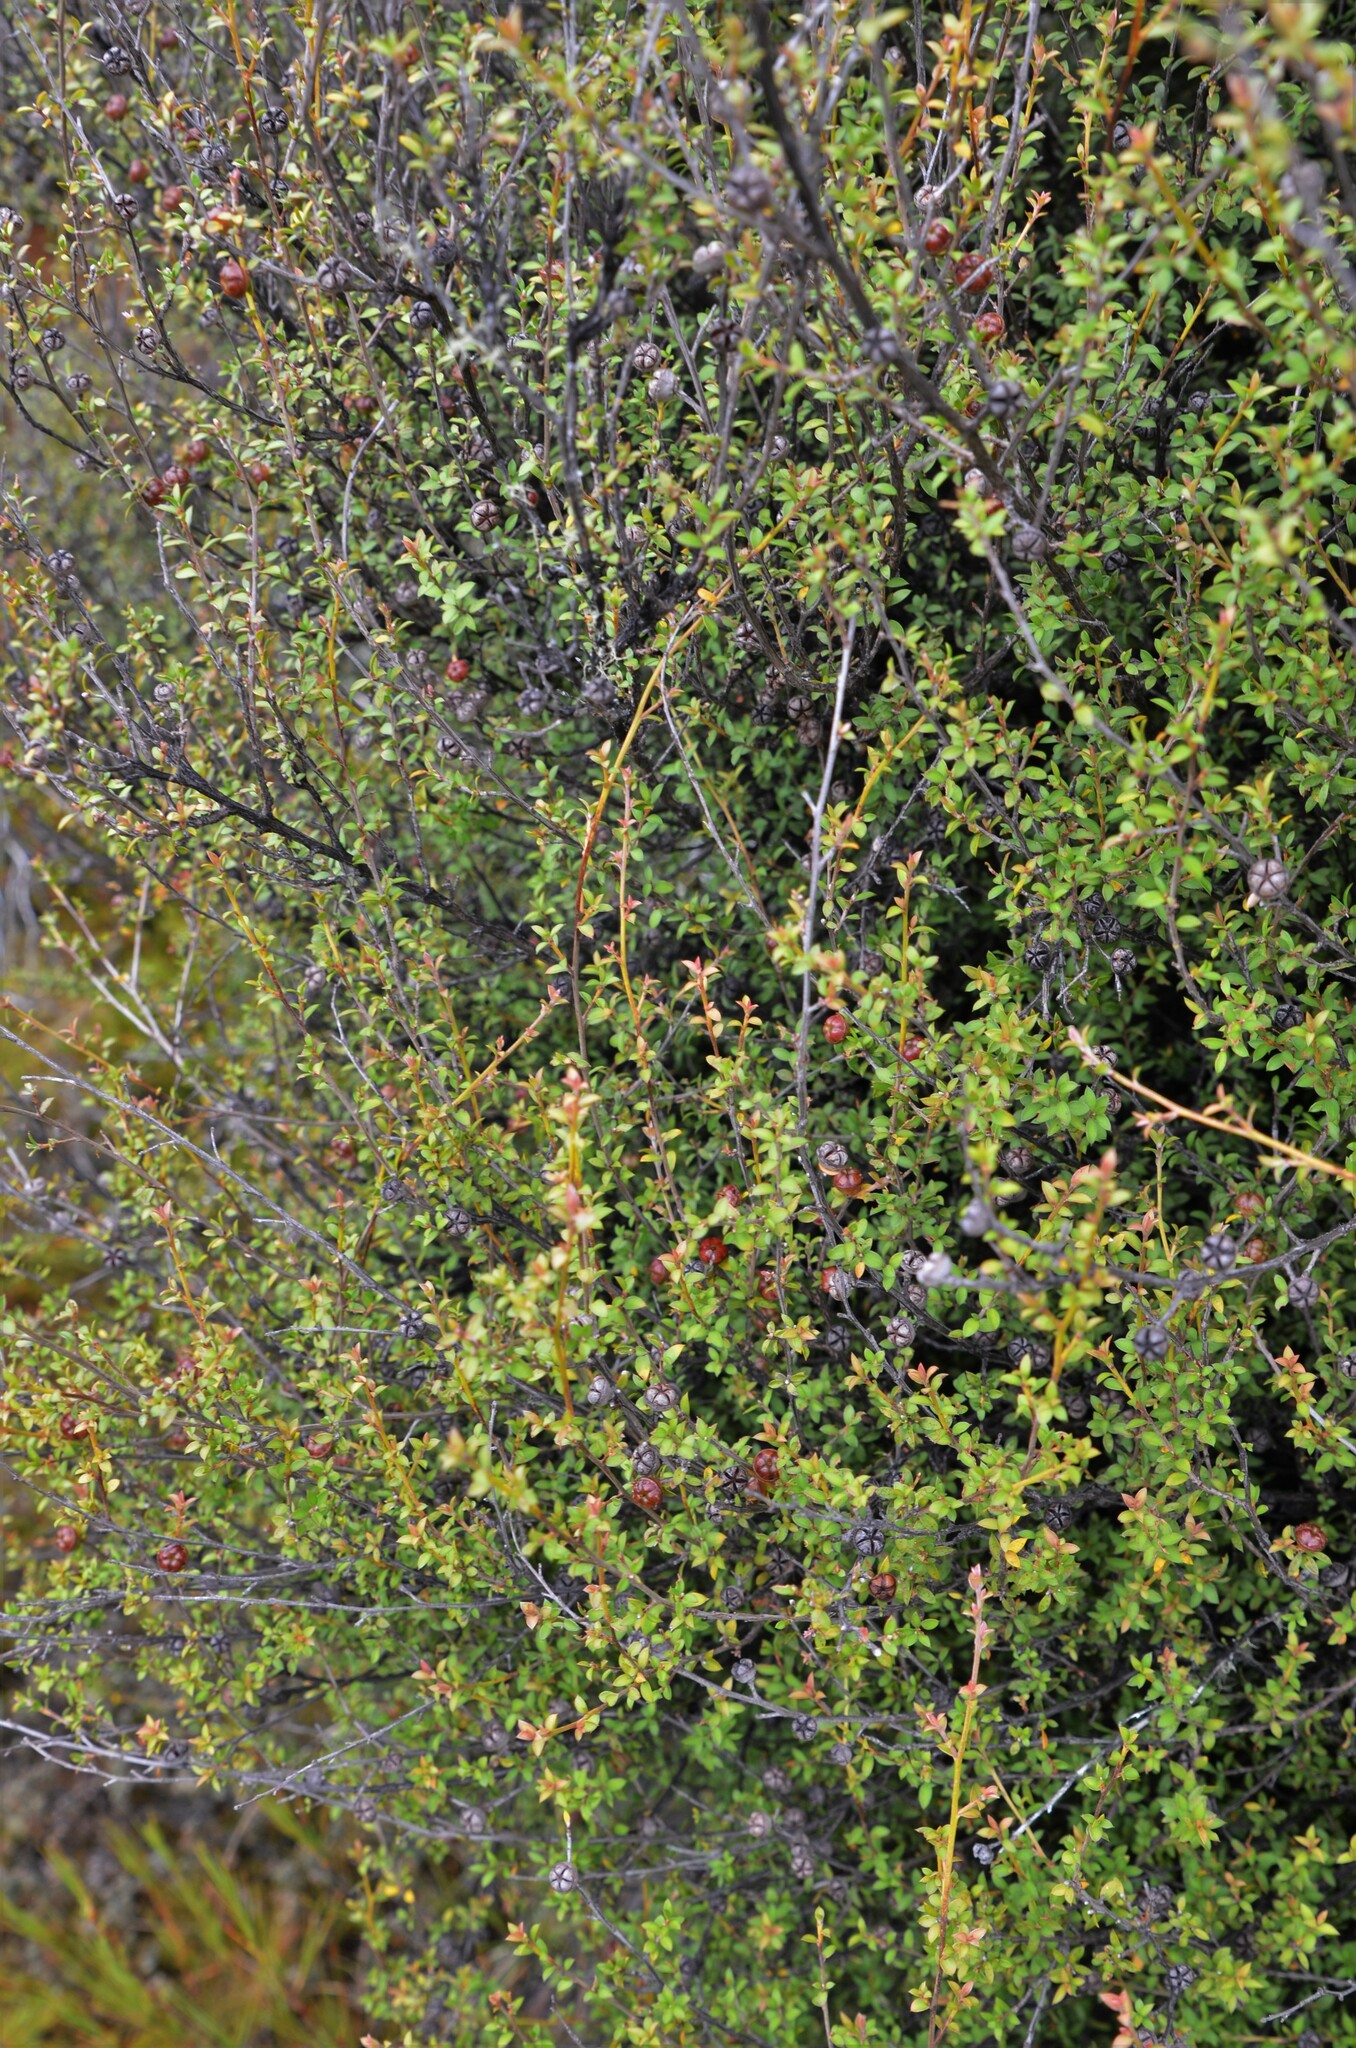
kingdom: Plantae
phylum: Tracheophyta
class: Magnoliopsida
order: Myrtales
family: Myrtaceae
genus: Leptospermum
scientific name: Leptospermum scoparium
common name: Broom tea-tree
